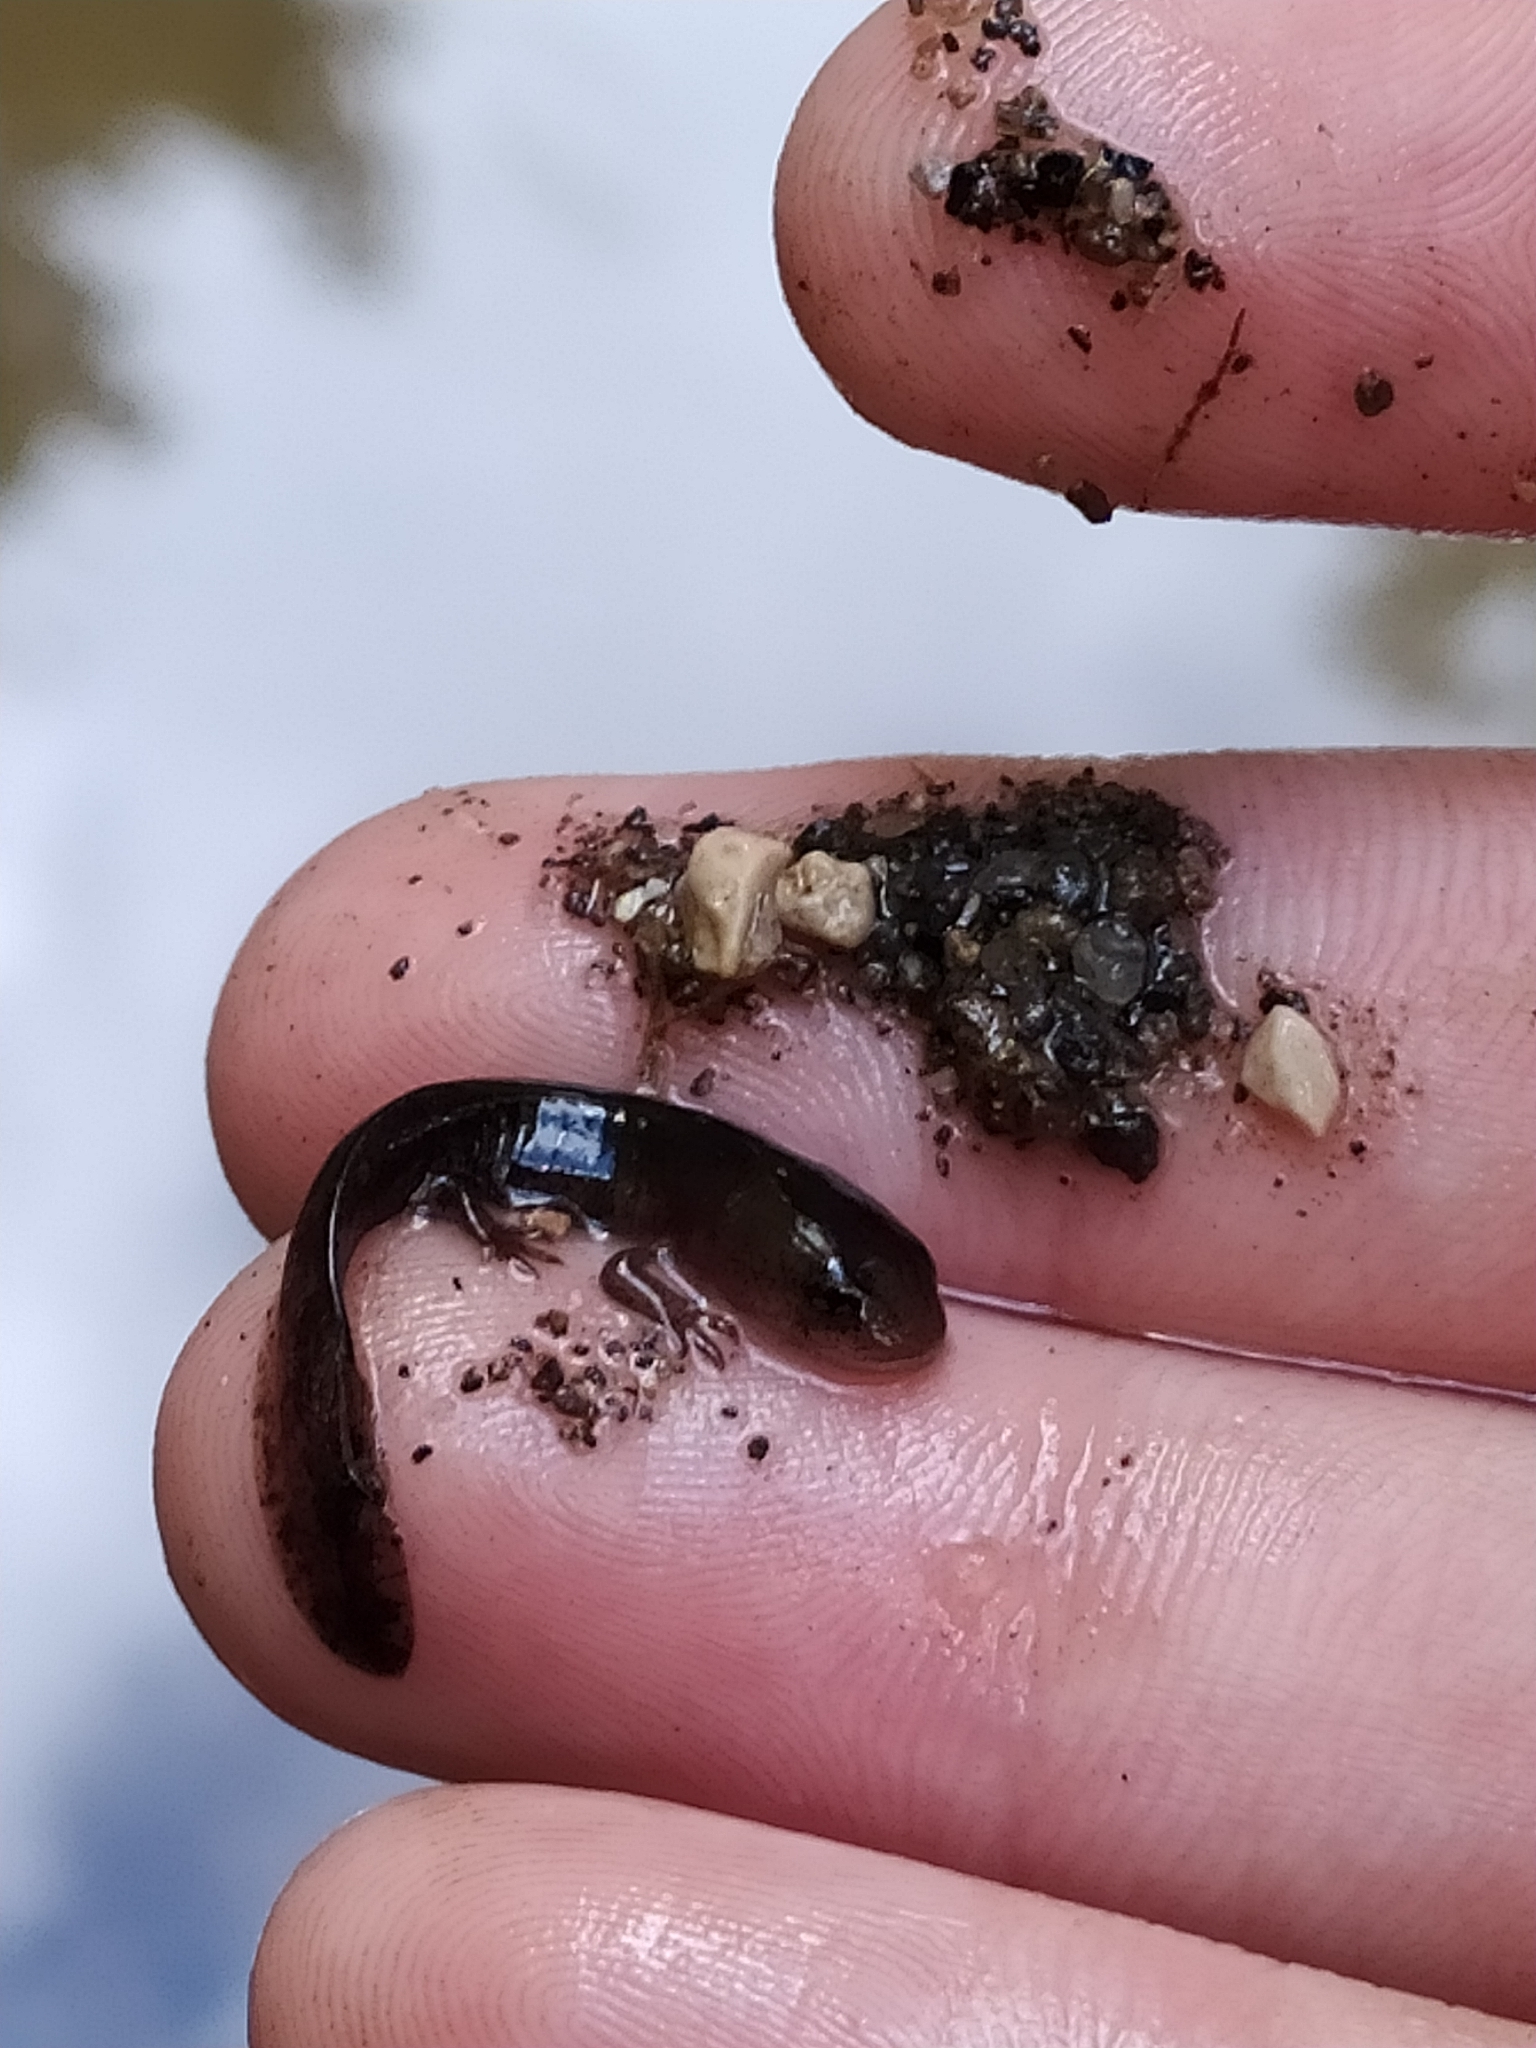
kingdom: Animalia
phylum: Chordata
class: Amphibia
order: Caudata
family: Salamandridae
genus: Salamandra
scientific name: Salamandra salamandra
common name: Fire salamander
